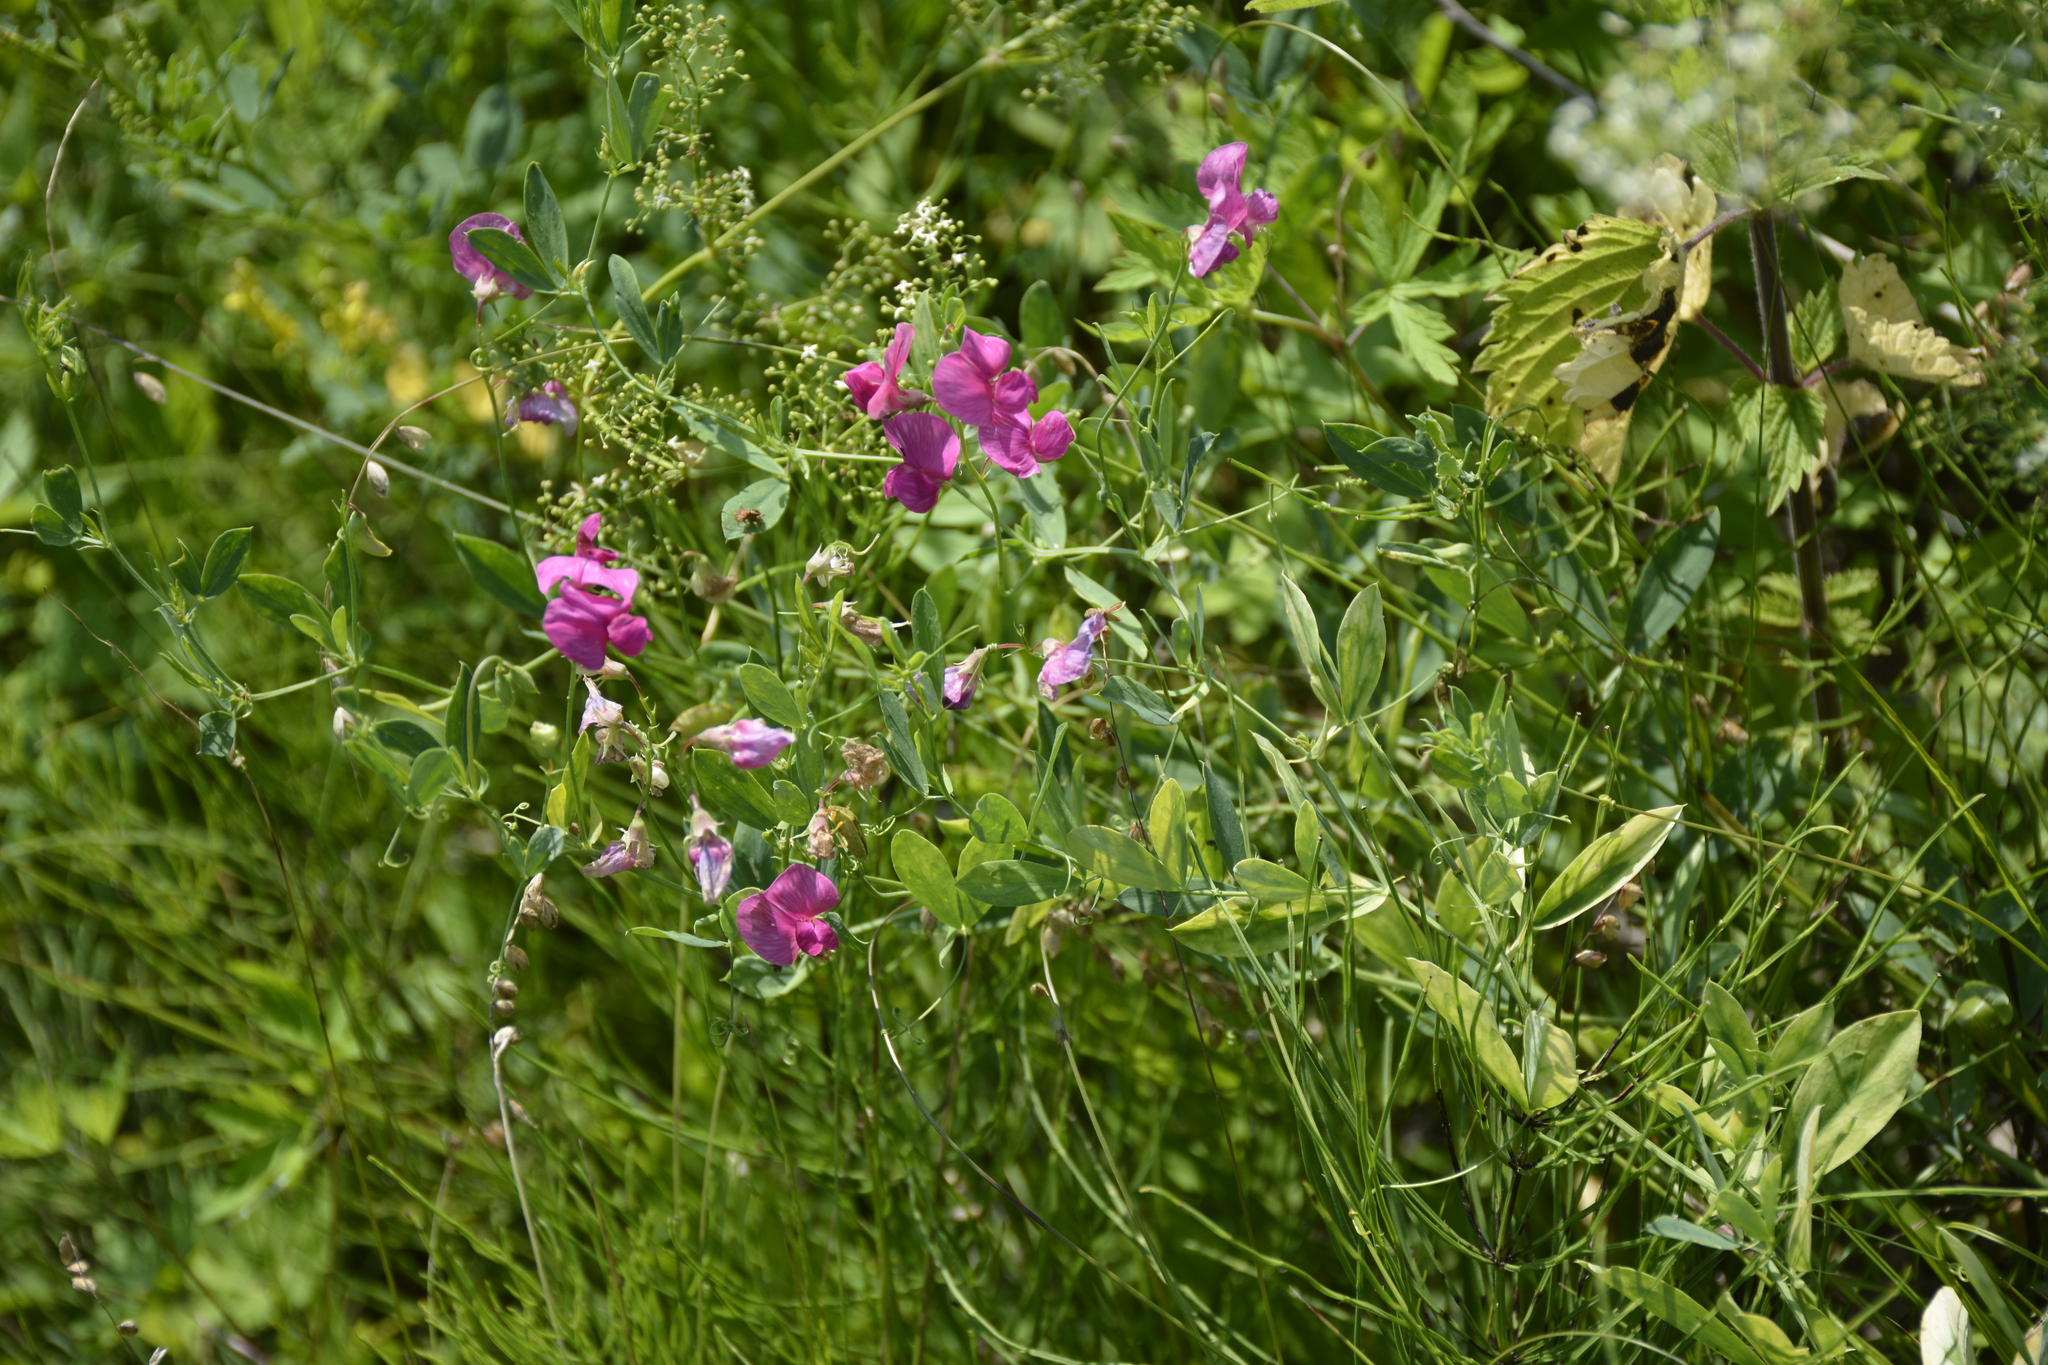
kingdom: Plantae
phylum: Tracheophyta
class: Magnoliopsida
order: Fabales
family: Fabaceae
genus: Lathyrus
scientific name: Lathyrus tuberosus
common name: Tuberous pea
